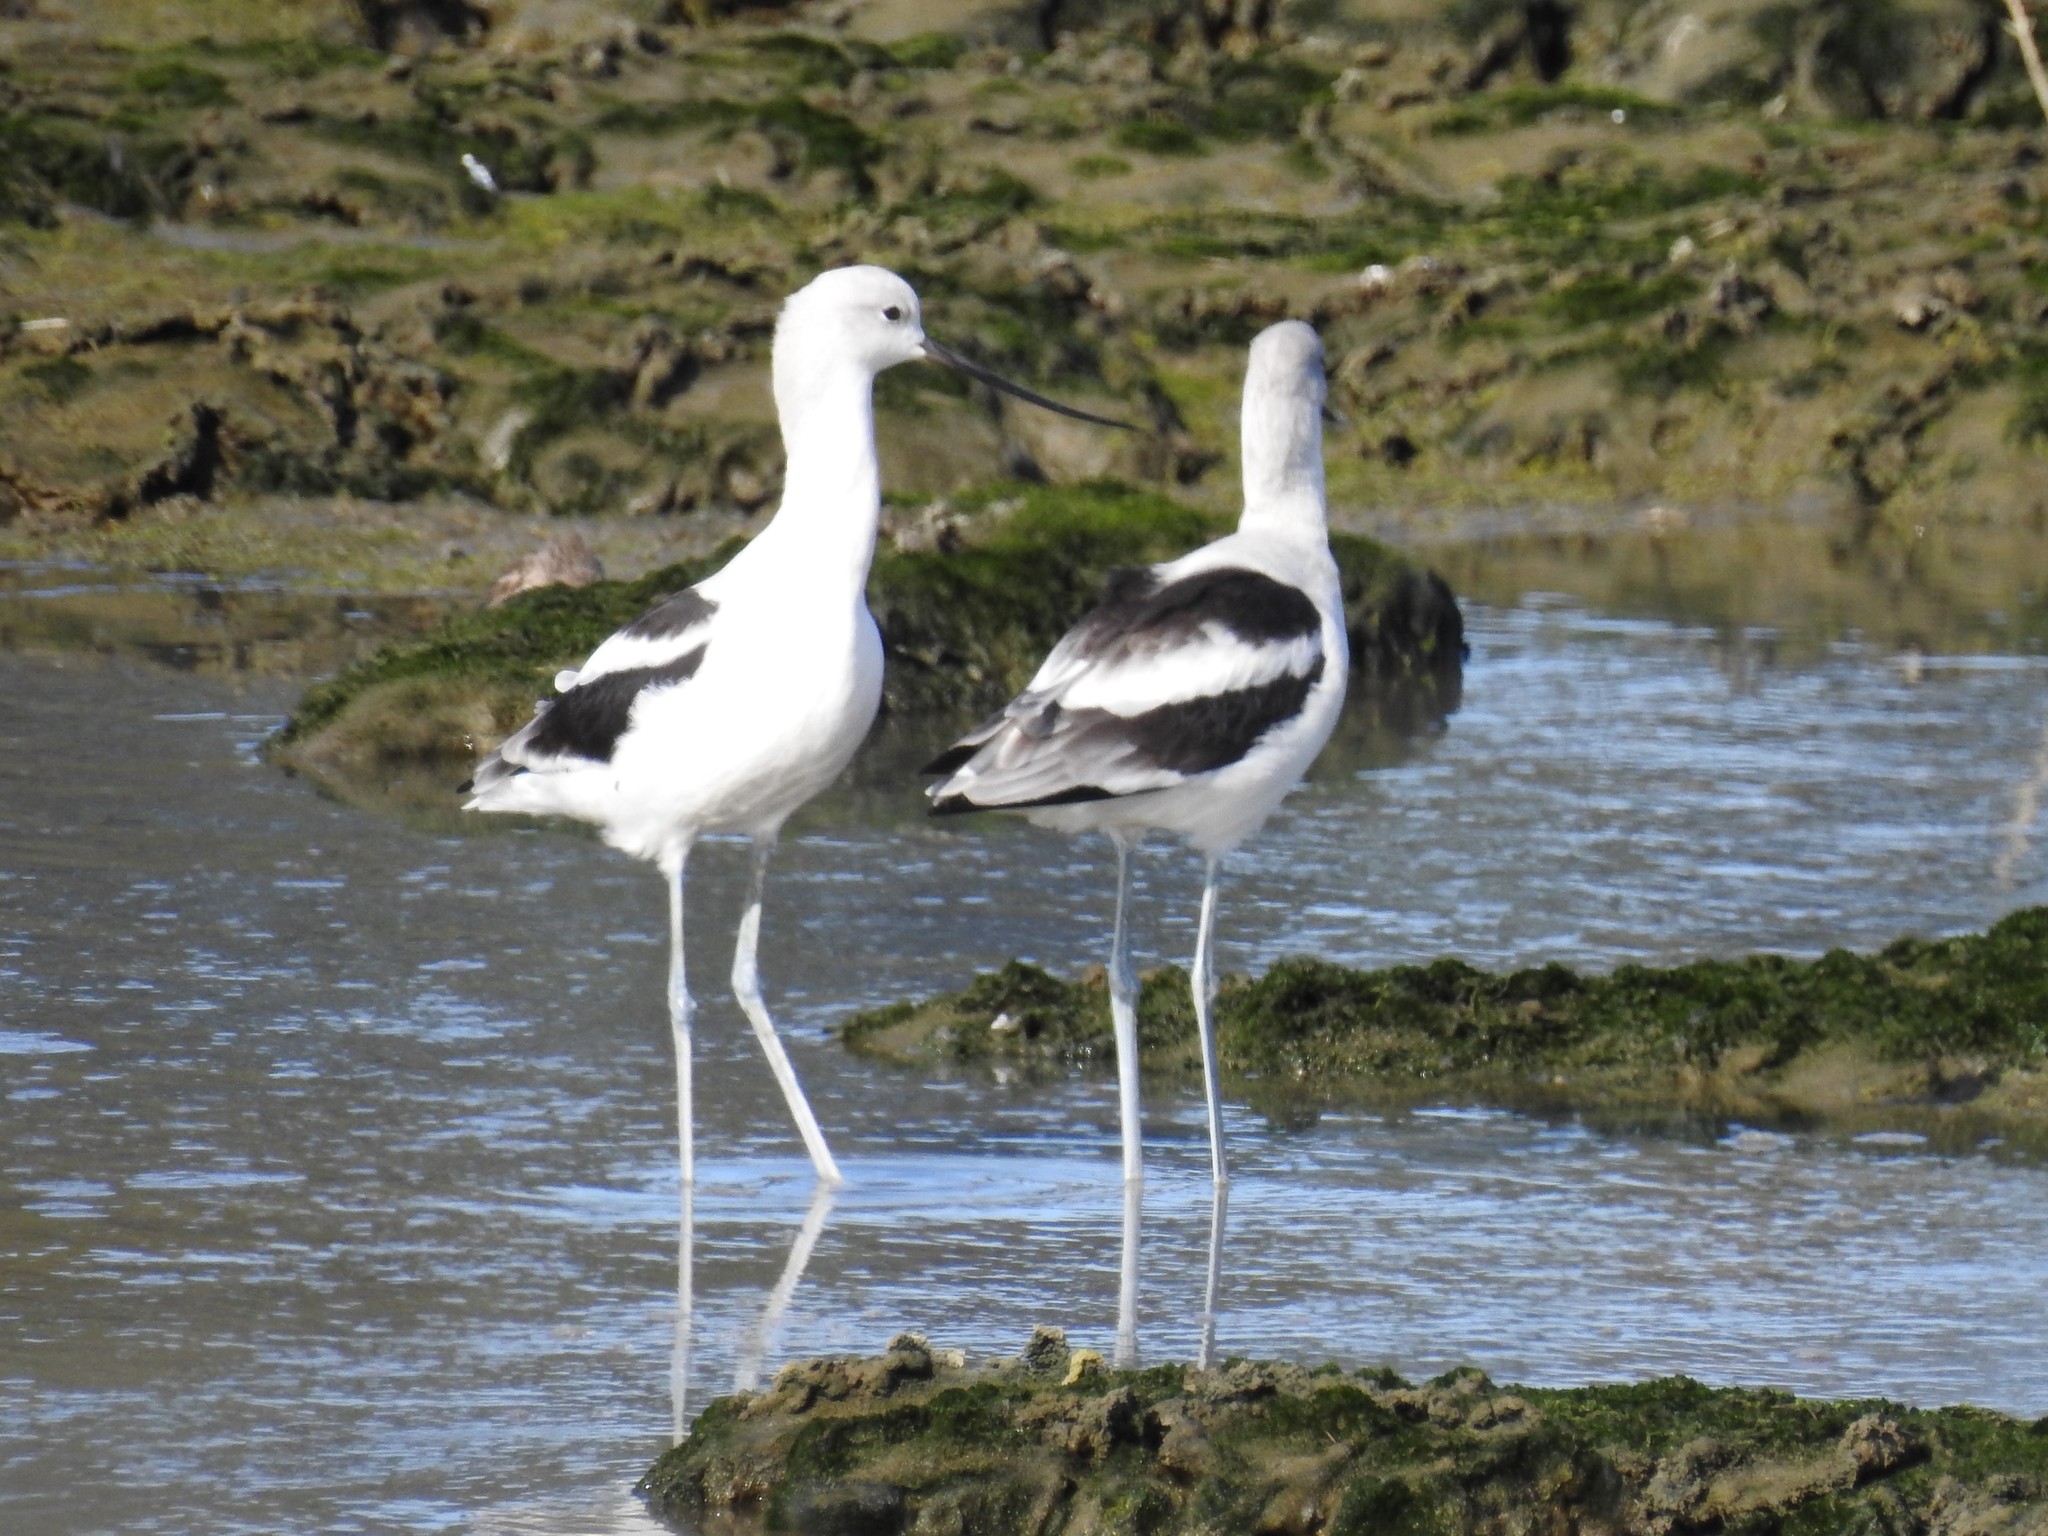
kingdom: Animalia
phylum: Chordata
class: Aves
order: Charadriiformes
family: Recurvirostridae
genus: Recurvirostra
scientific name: Recurvirostra americana
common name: American avocet
